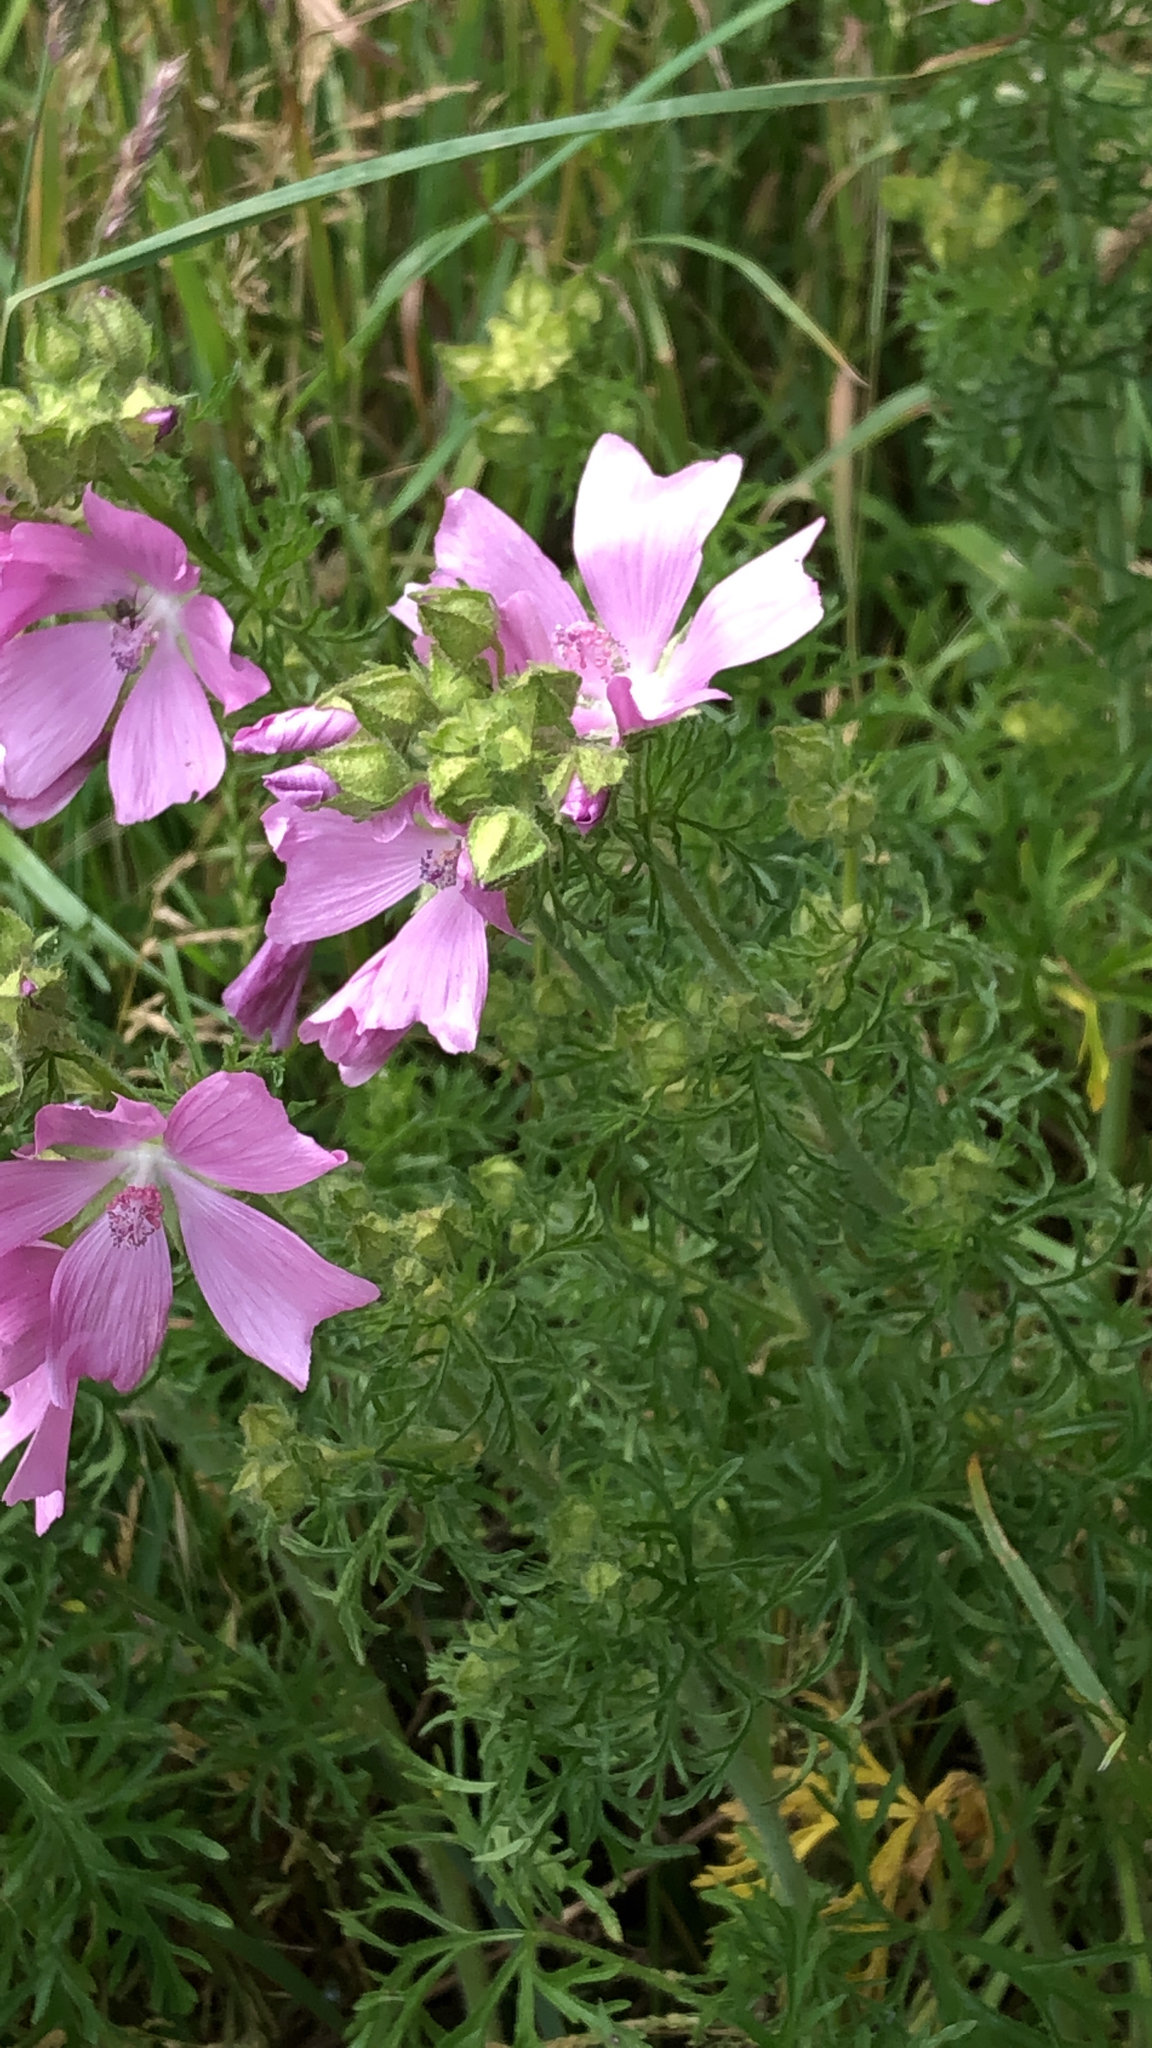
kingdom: Plantae
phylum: Tracheophyta
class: Magnoliopsida
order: Malvales
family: Malvaceae
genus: Malva
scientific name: Malva moschata
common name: Musk mallow
